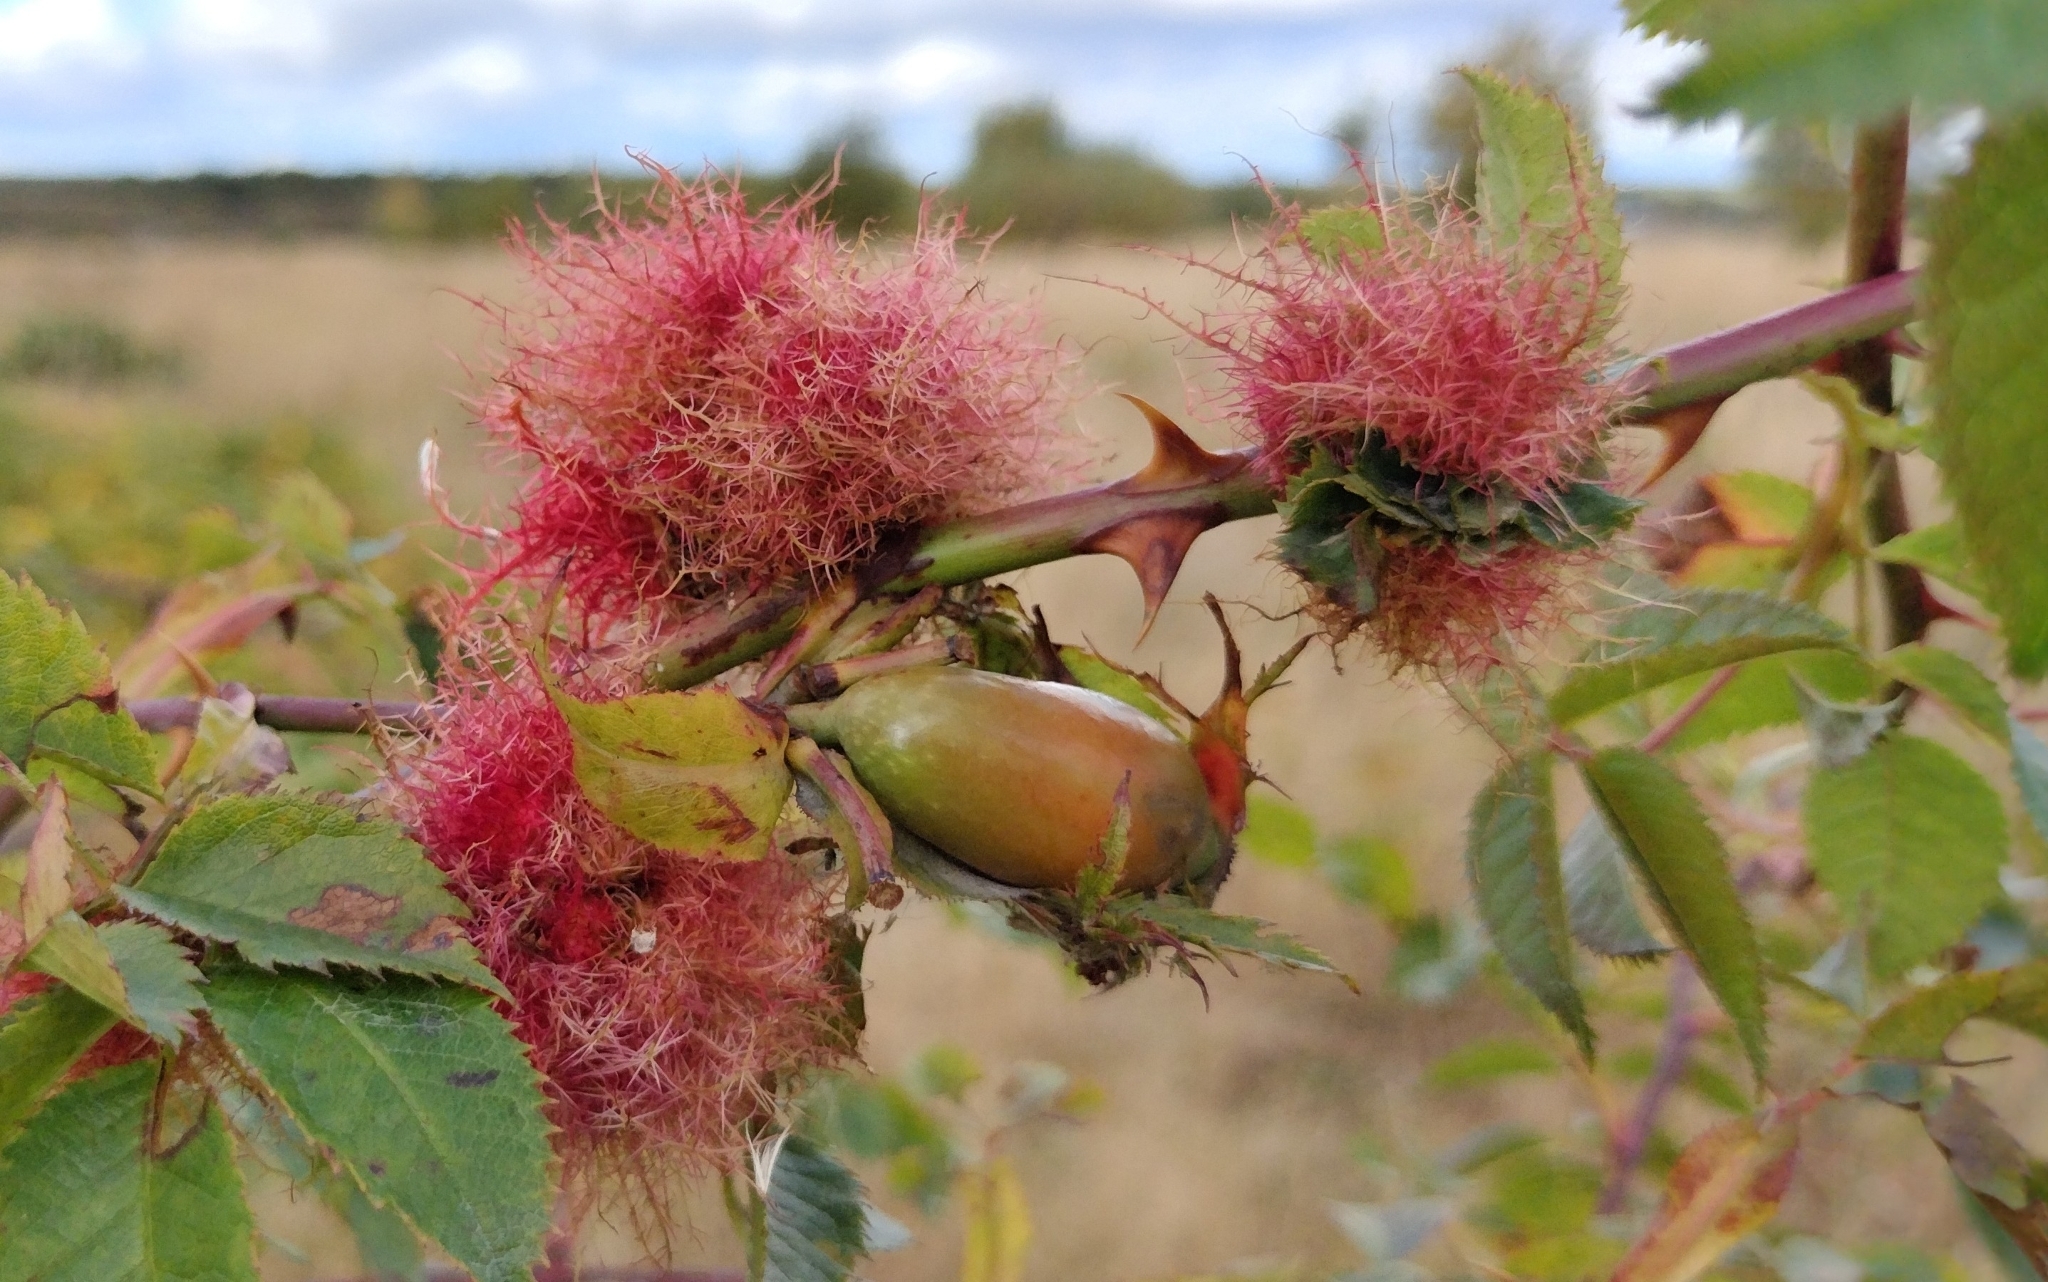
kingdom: Animalia
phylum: Arthropoda
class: Insecta
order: Hymenoptera
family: Cynipidae
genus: Diplolepis
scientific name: Diplolepis rosae
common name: Bedeguar gall
